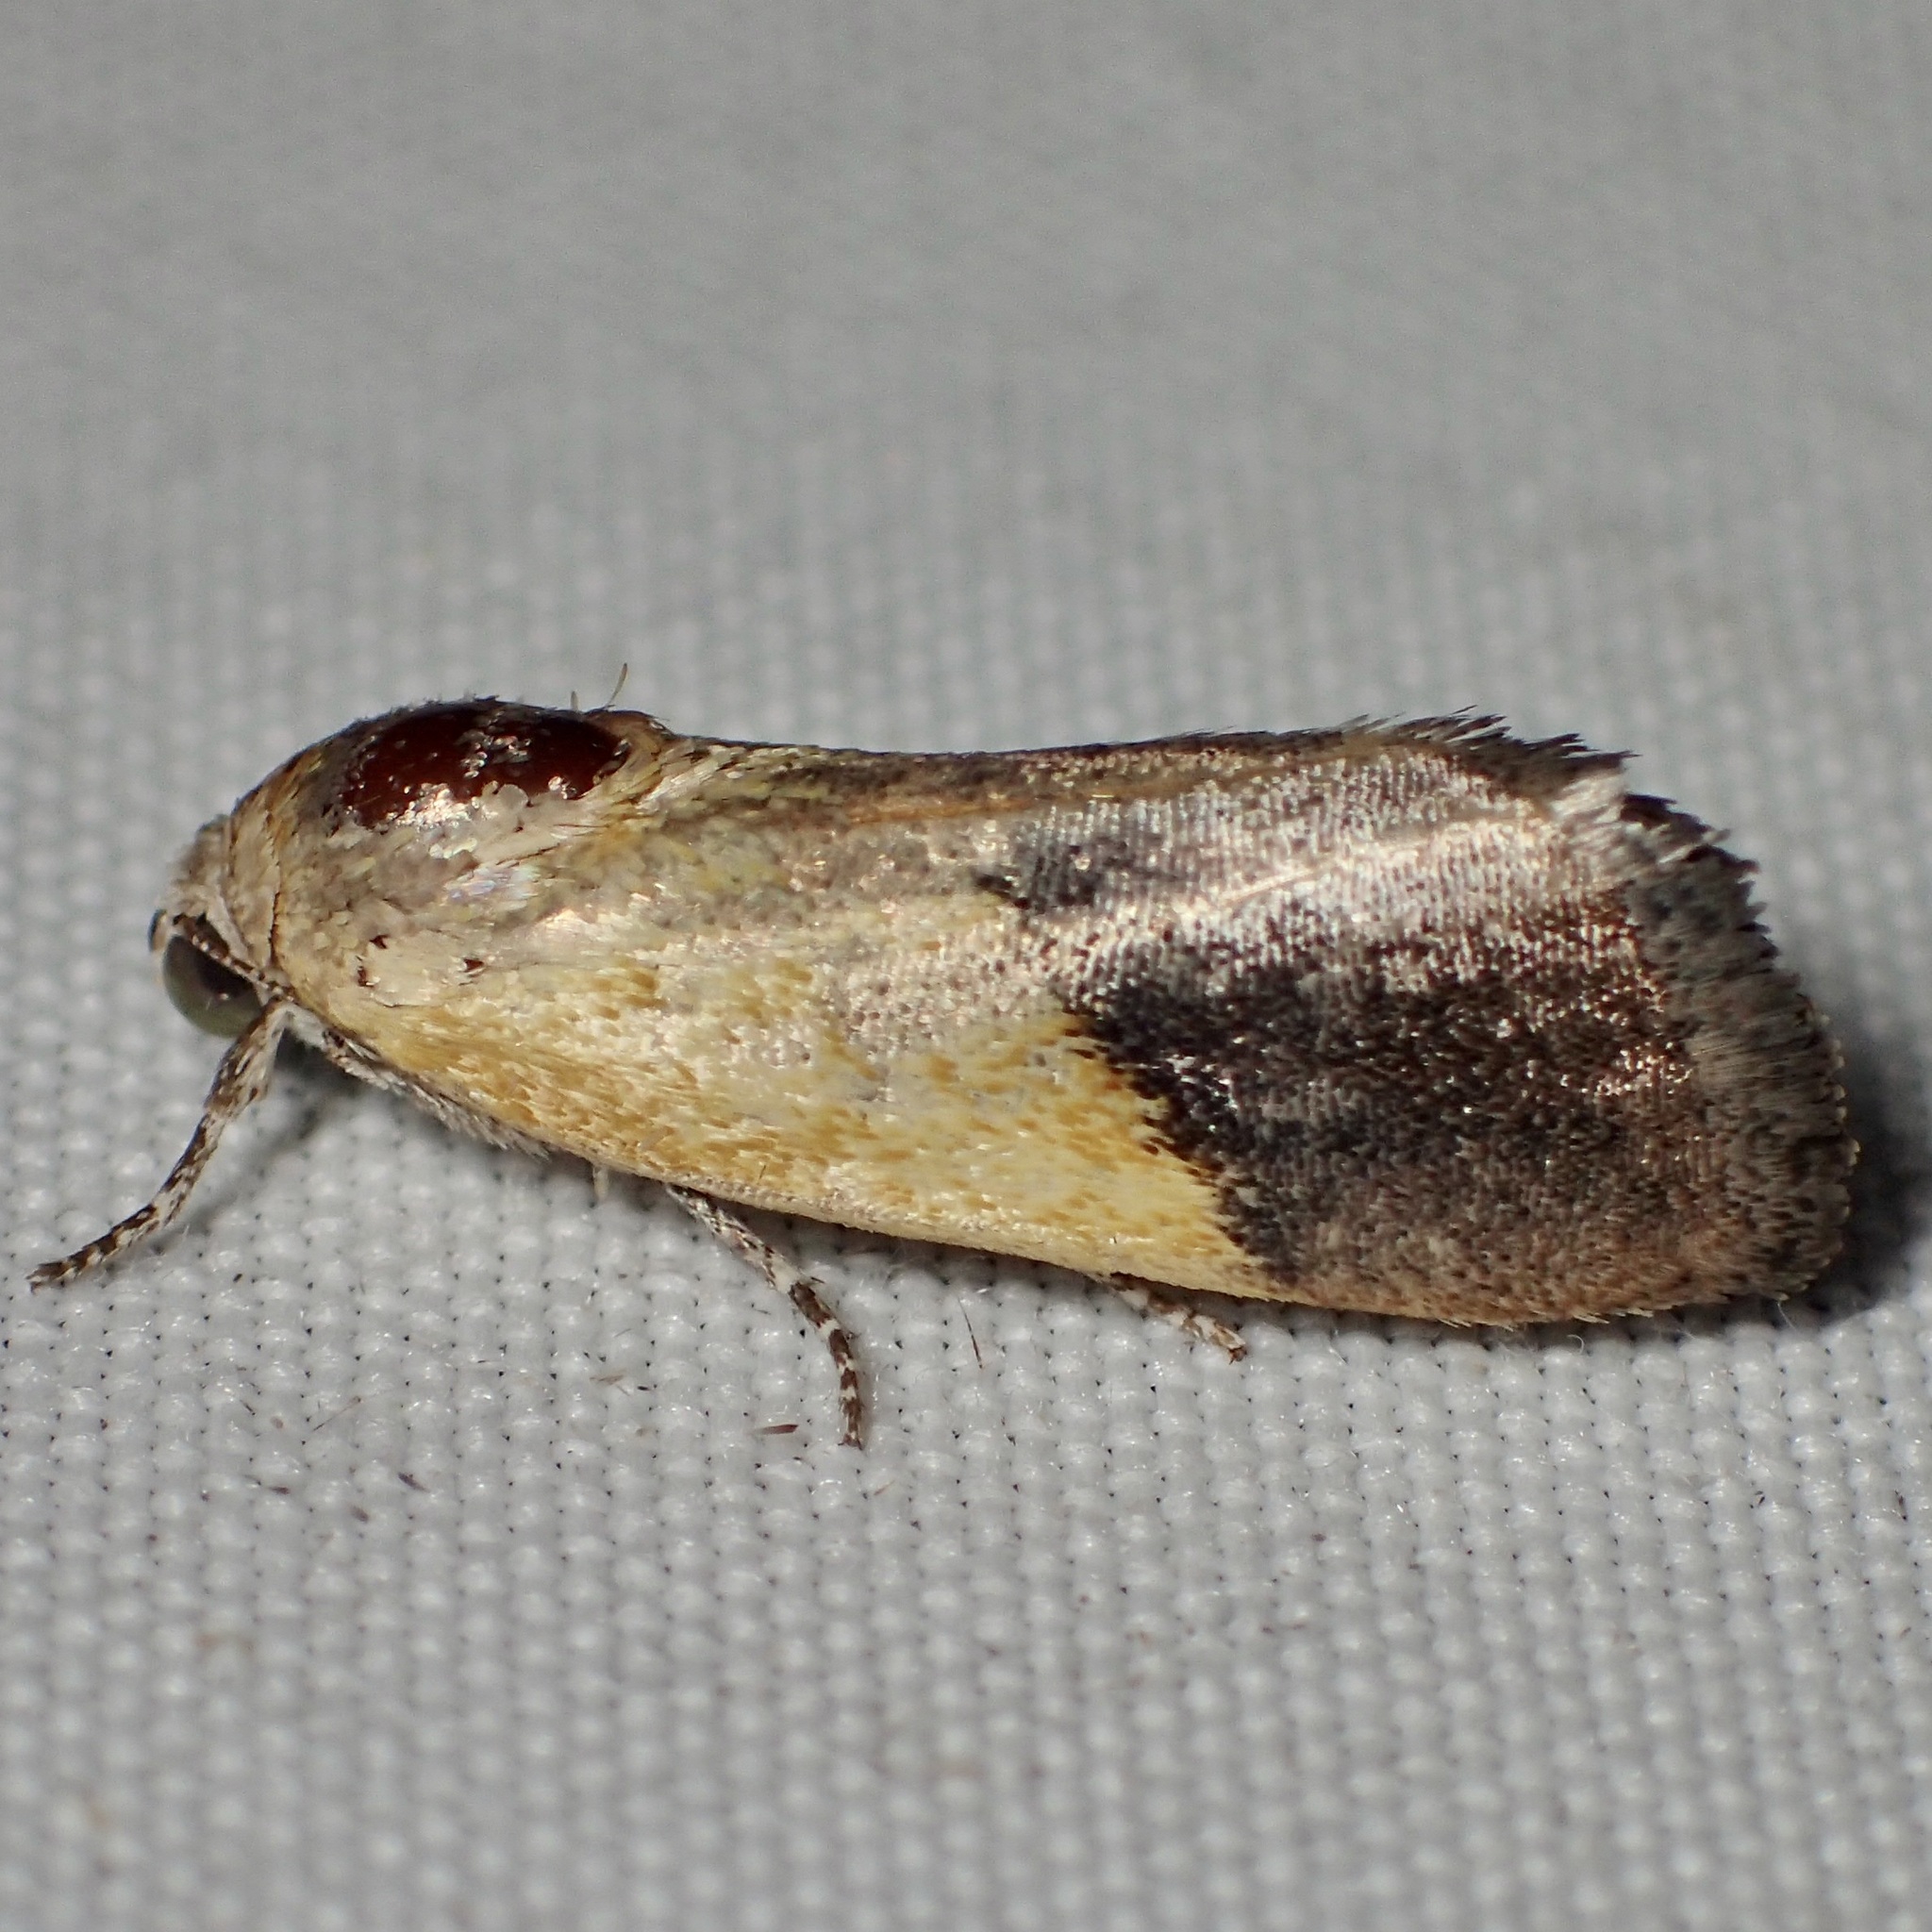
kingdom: Animalia
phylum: Arthropoda
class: Insecta
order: Lepidoptera
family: Noctuidae
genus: Acontia
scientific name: Acontia bicolorata
